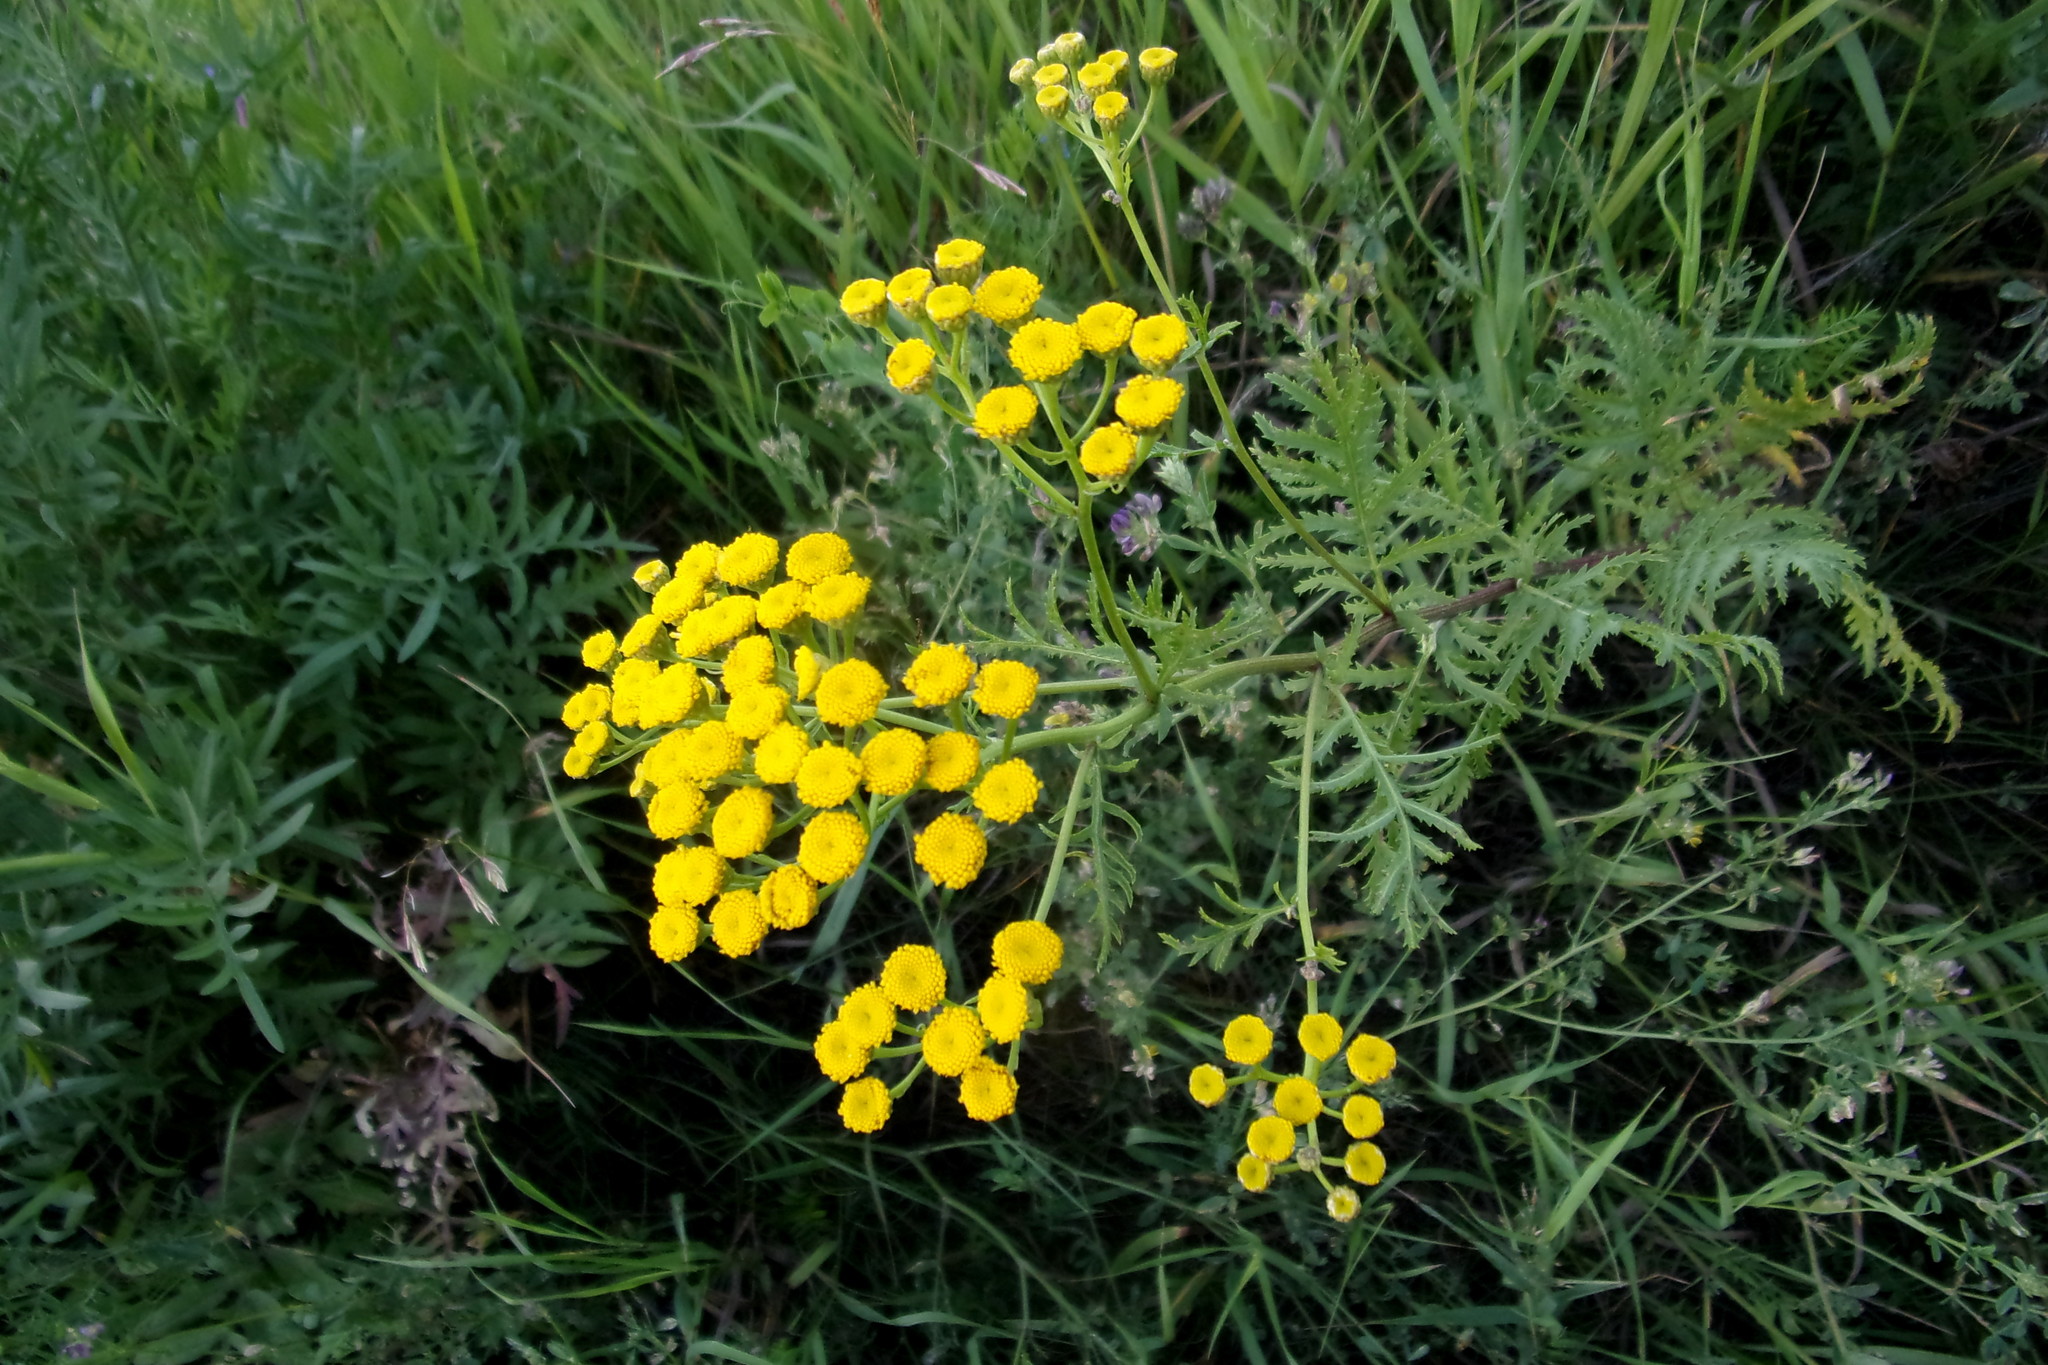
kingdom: Plantae
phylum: Tracheophyta
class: Magnoliopsida
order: Asterales
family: Asteraceae
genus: Tanacetum
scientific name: Tanacetum vulgare
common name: Common tansy
